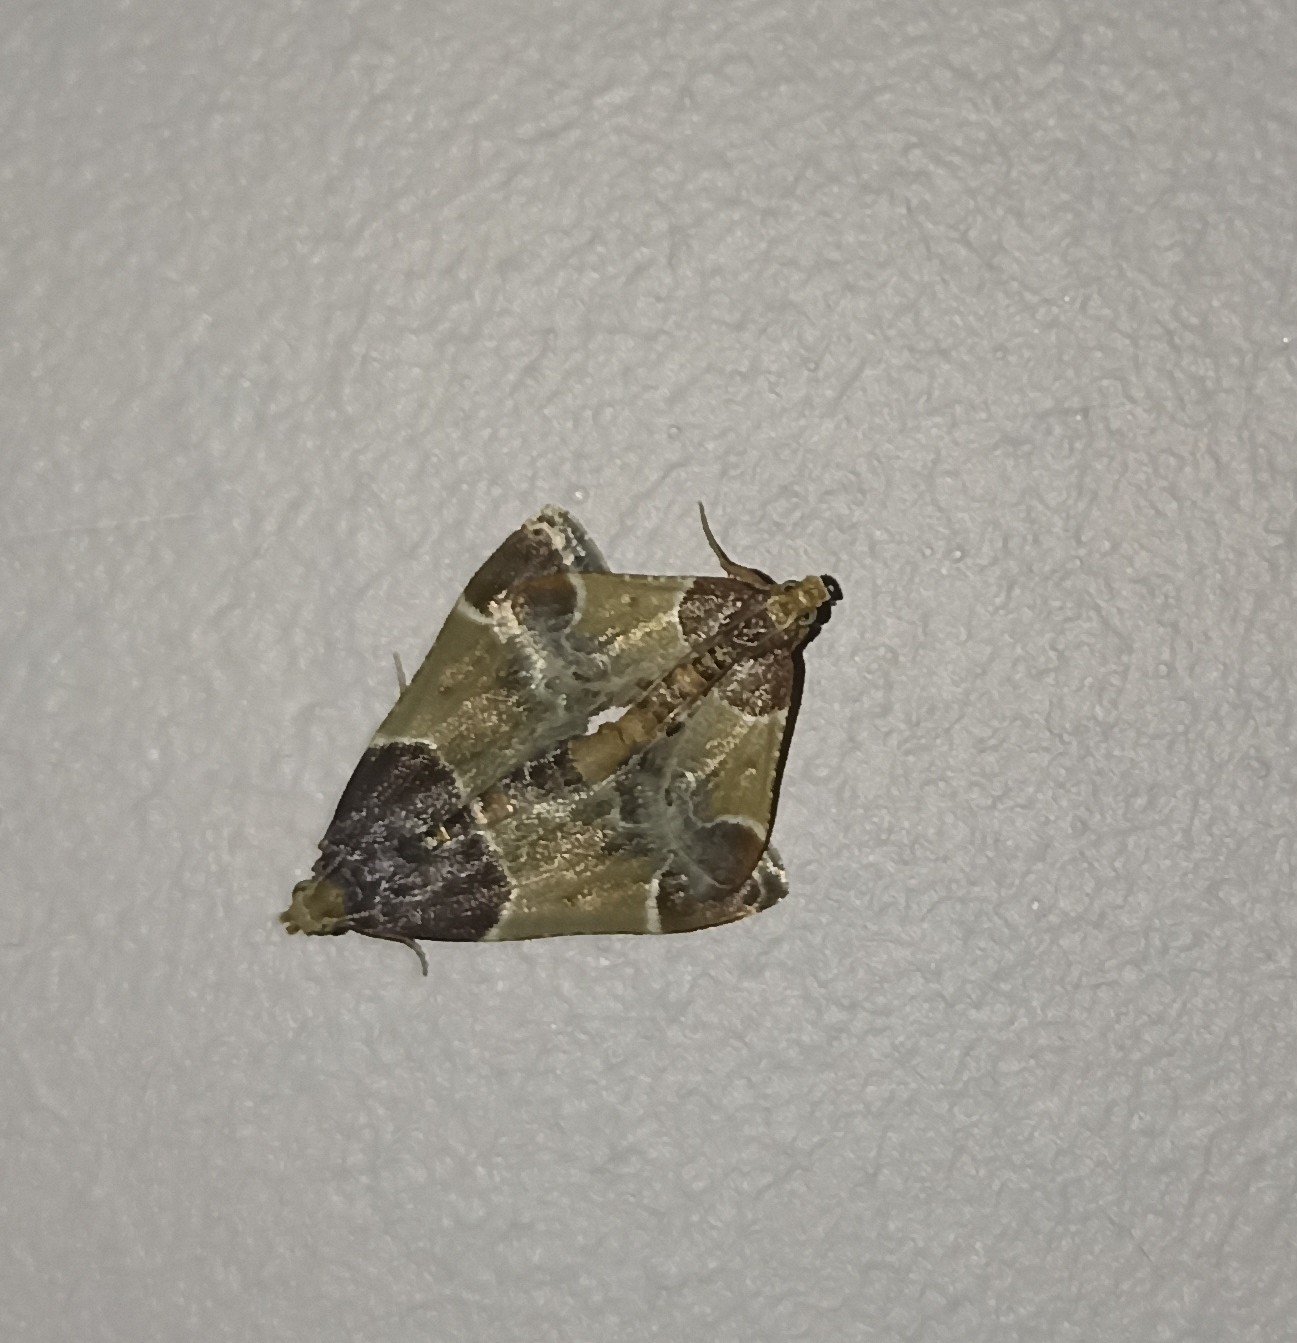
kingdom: Animalia
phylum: Arthropoda
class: Insecta
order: Lepidoptera
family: Pyralidae
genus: Pyralis
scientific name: Pyralis farinalis
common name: Meal moth
